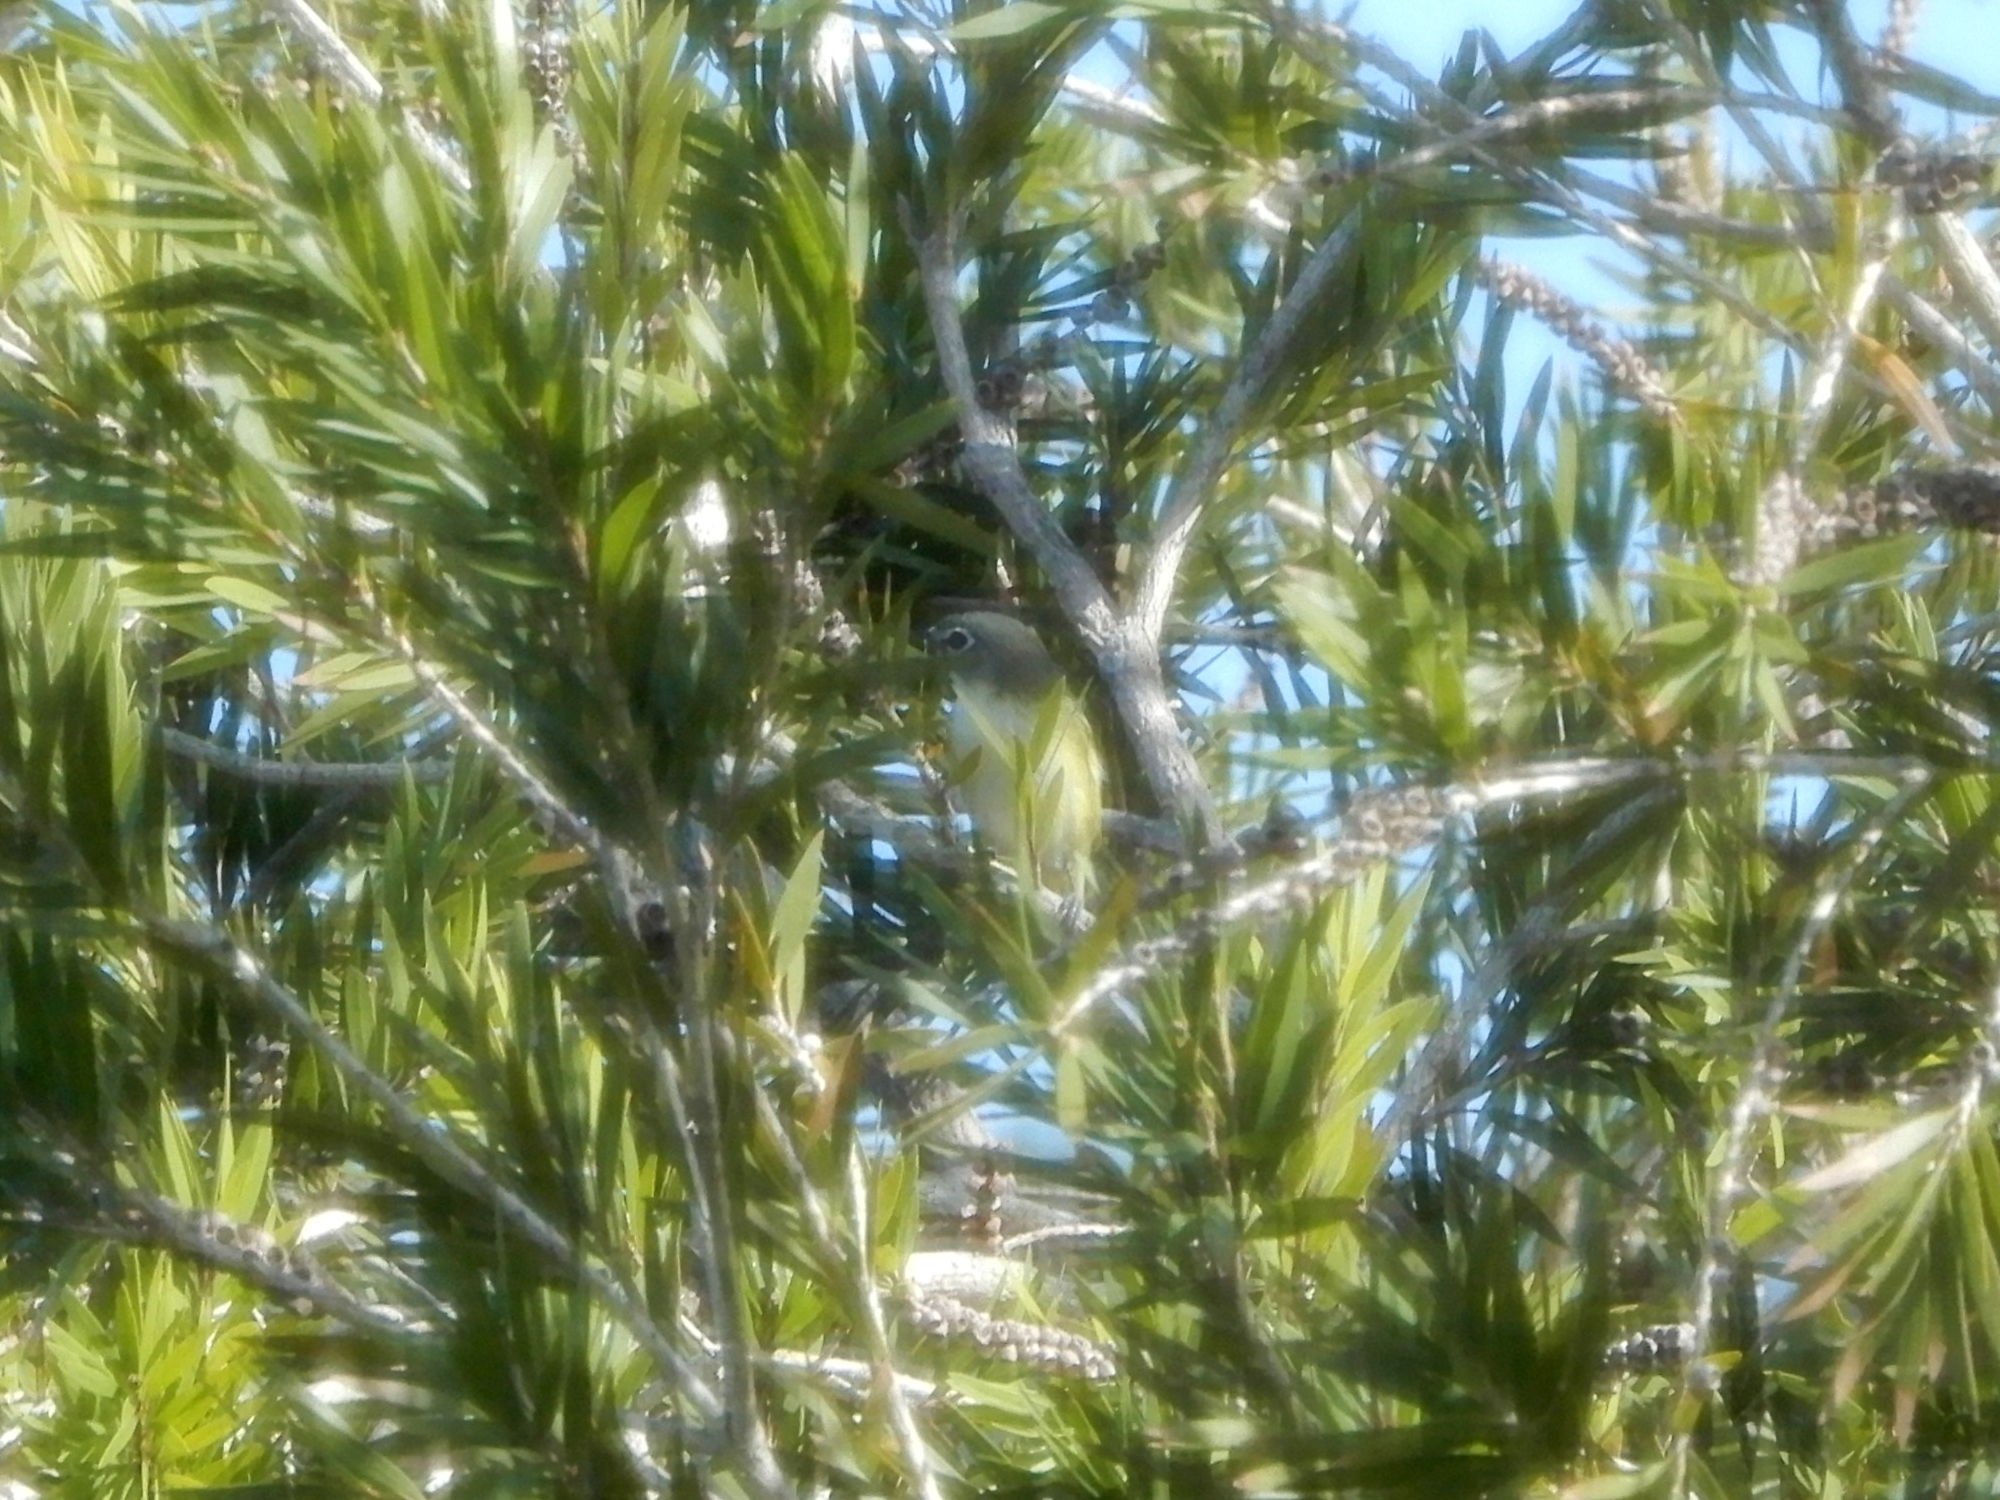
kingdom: Animalia
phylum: Chordata
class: Aves
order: Passeriformes
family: Vireonidae
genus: Vireo
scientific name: Vireo solitarius
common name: Blue-headed vireo
